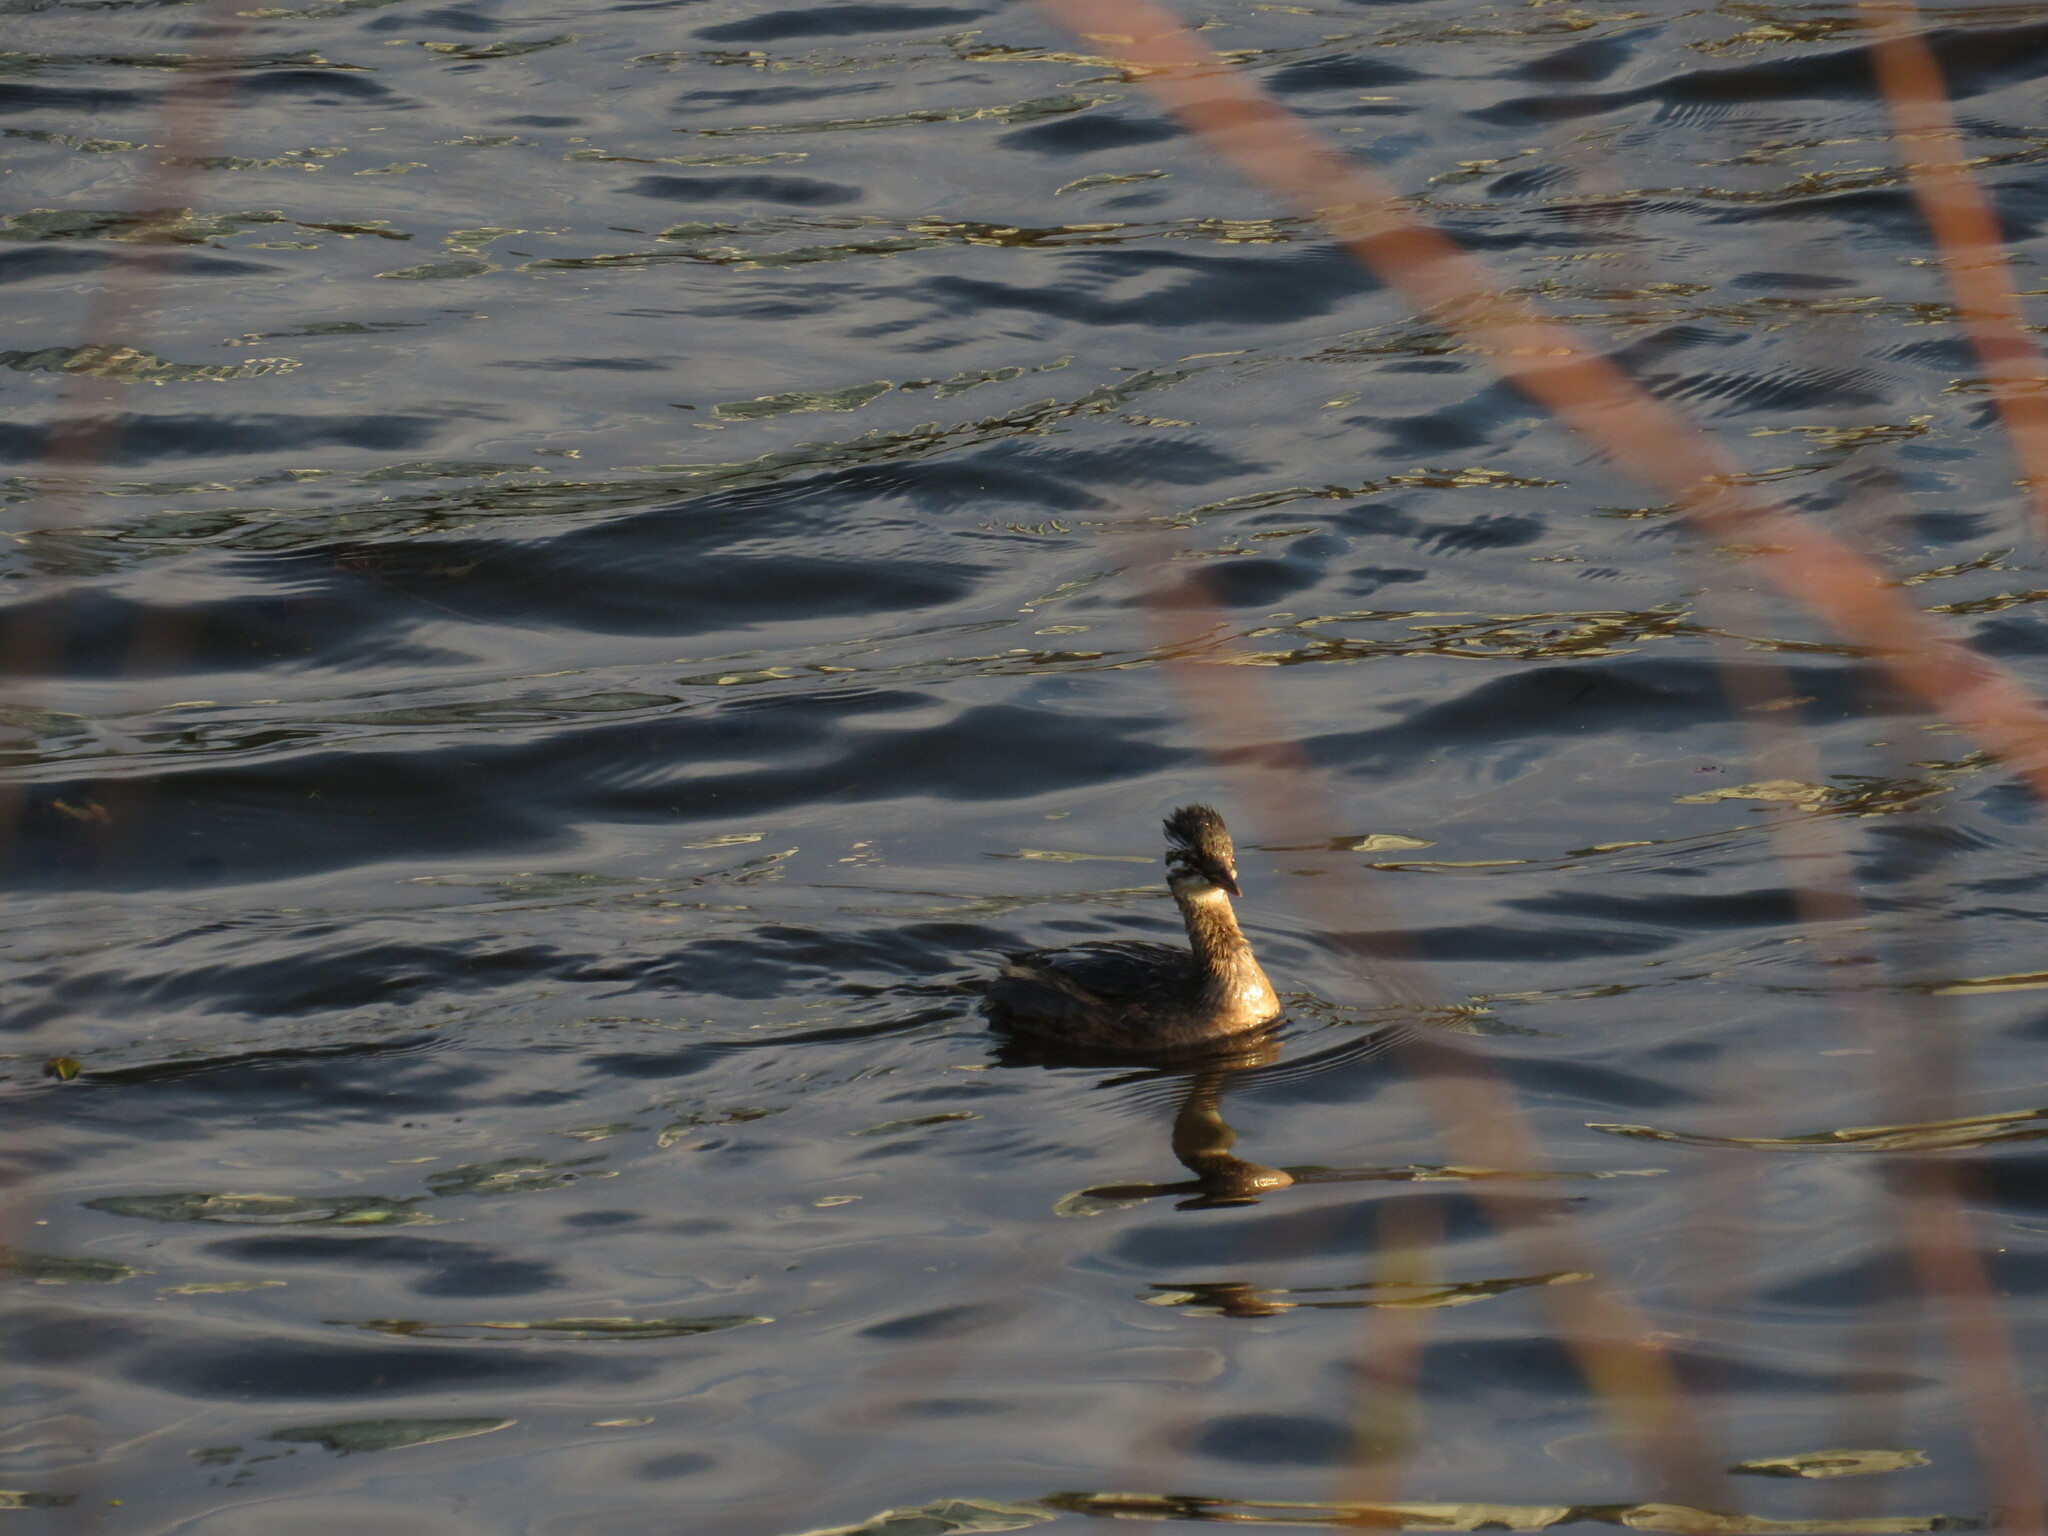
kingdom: Animalia
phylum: Chordata
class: Aves
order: Podicipediformes
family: Podicipedidae
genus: Rollandia
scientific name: Rollandia rolland
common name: White-tufted grebe
